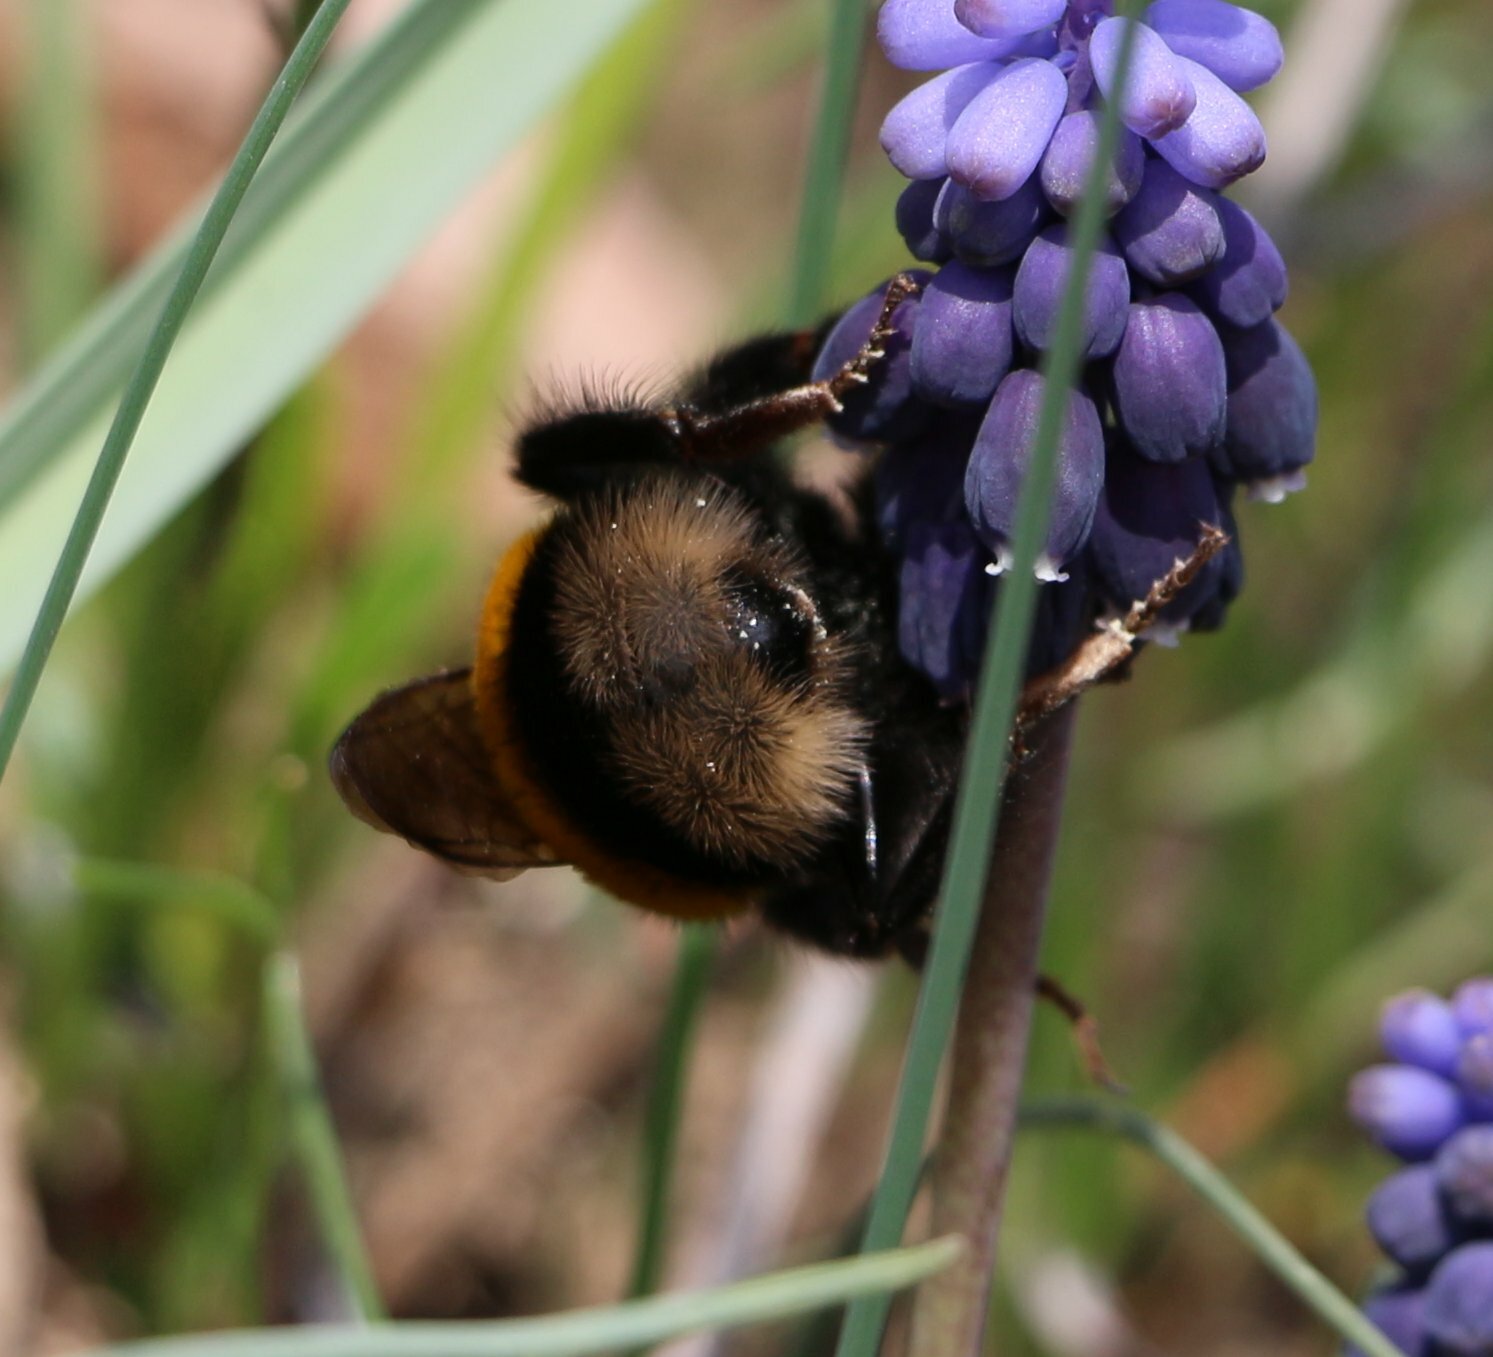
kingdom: Animalia
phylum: Arthropoda
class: Insecta
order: Hymenoptera
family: Apidae
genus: Bombus
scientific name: Bombus
